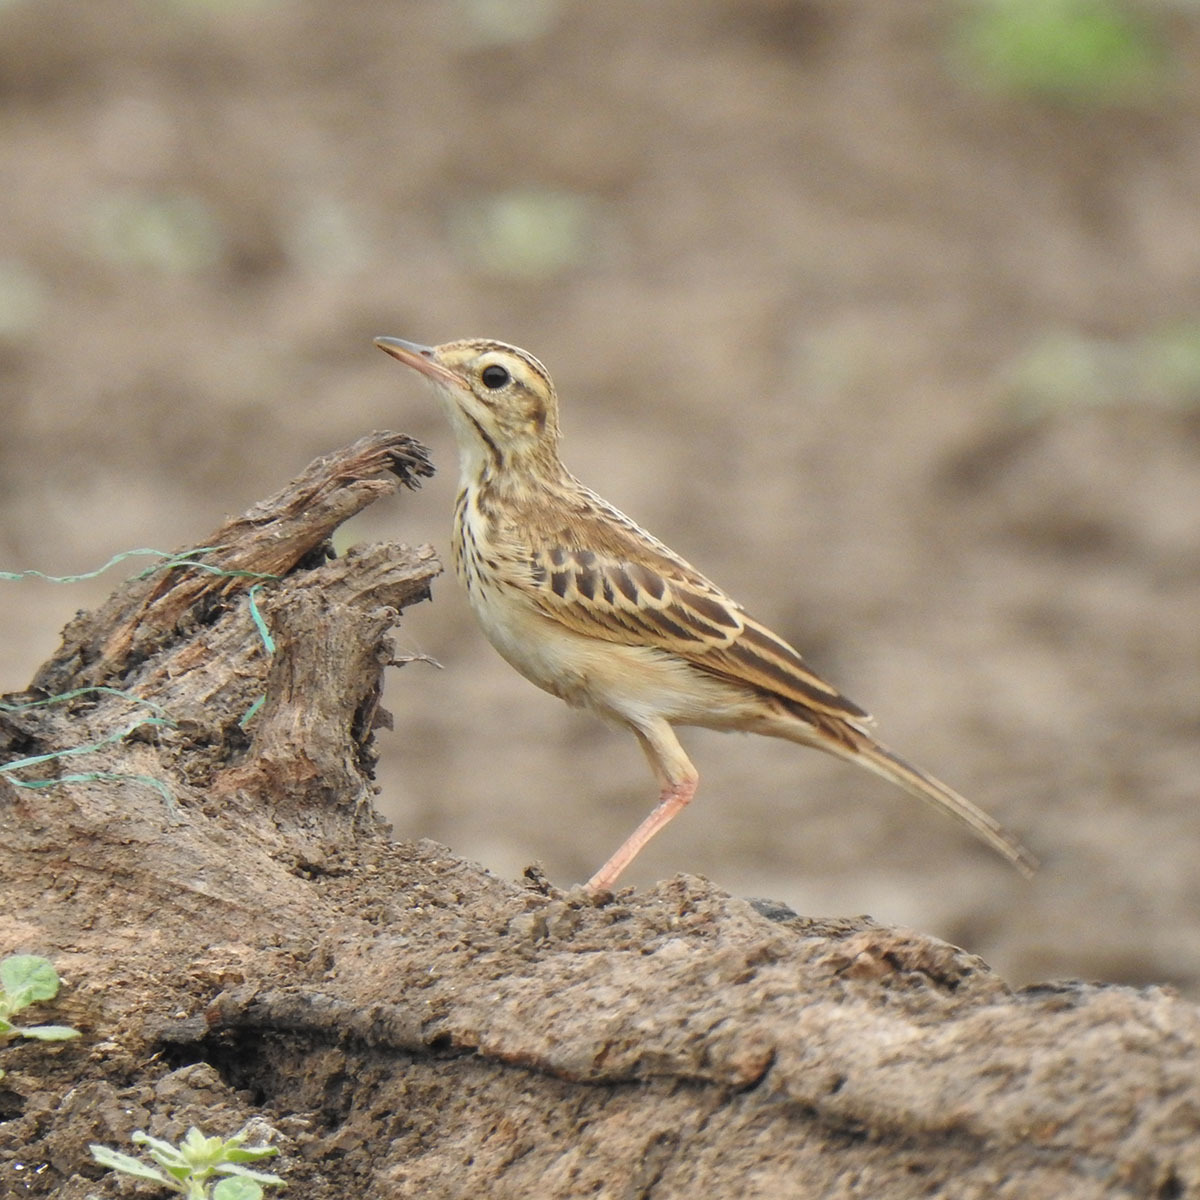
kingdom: Animalia
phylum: Chordata
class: Aves
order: Passeriformes
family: Motacillidae
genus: Anthus
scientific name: Anthus rufulus
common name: Paddyfield pipit
